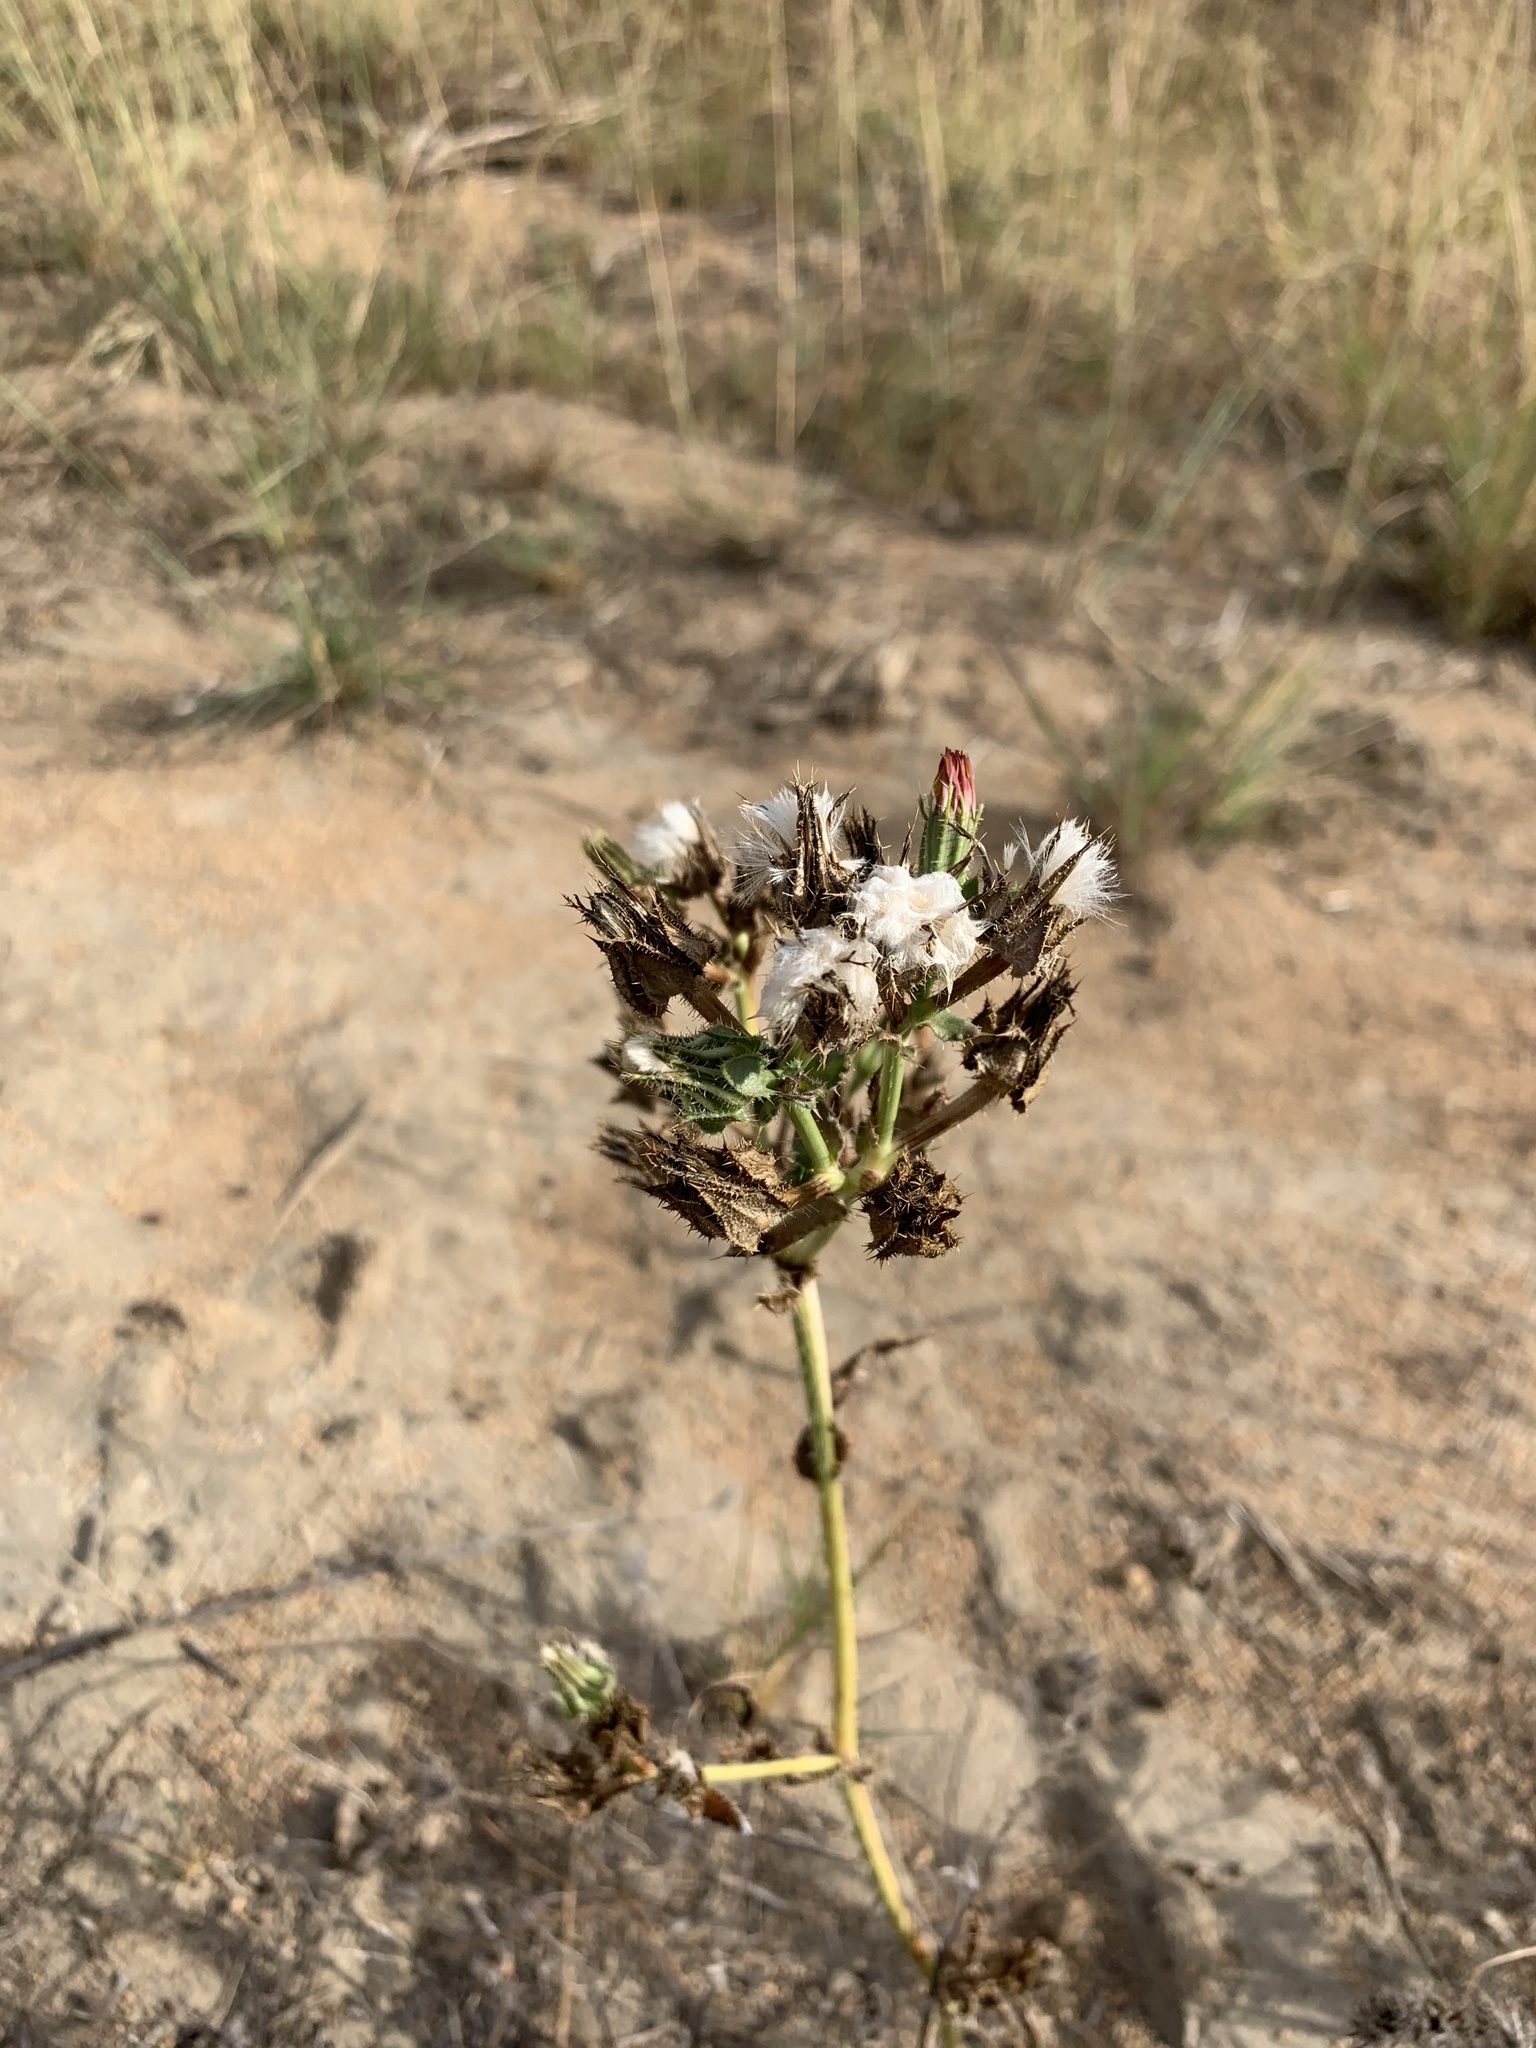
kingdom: Plantae
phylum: Tracheophyta
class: Magnoliopsida
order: Asterales
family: Asteraceae
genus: Helminthotheca
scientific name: Helminthotheca echioides
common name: Ox-tongue
